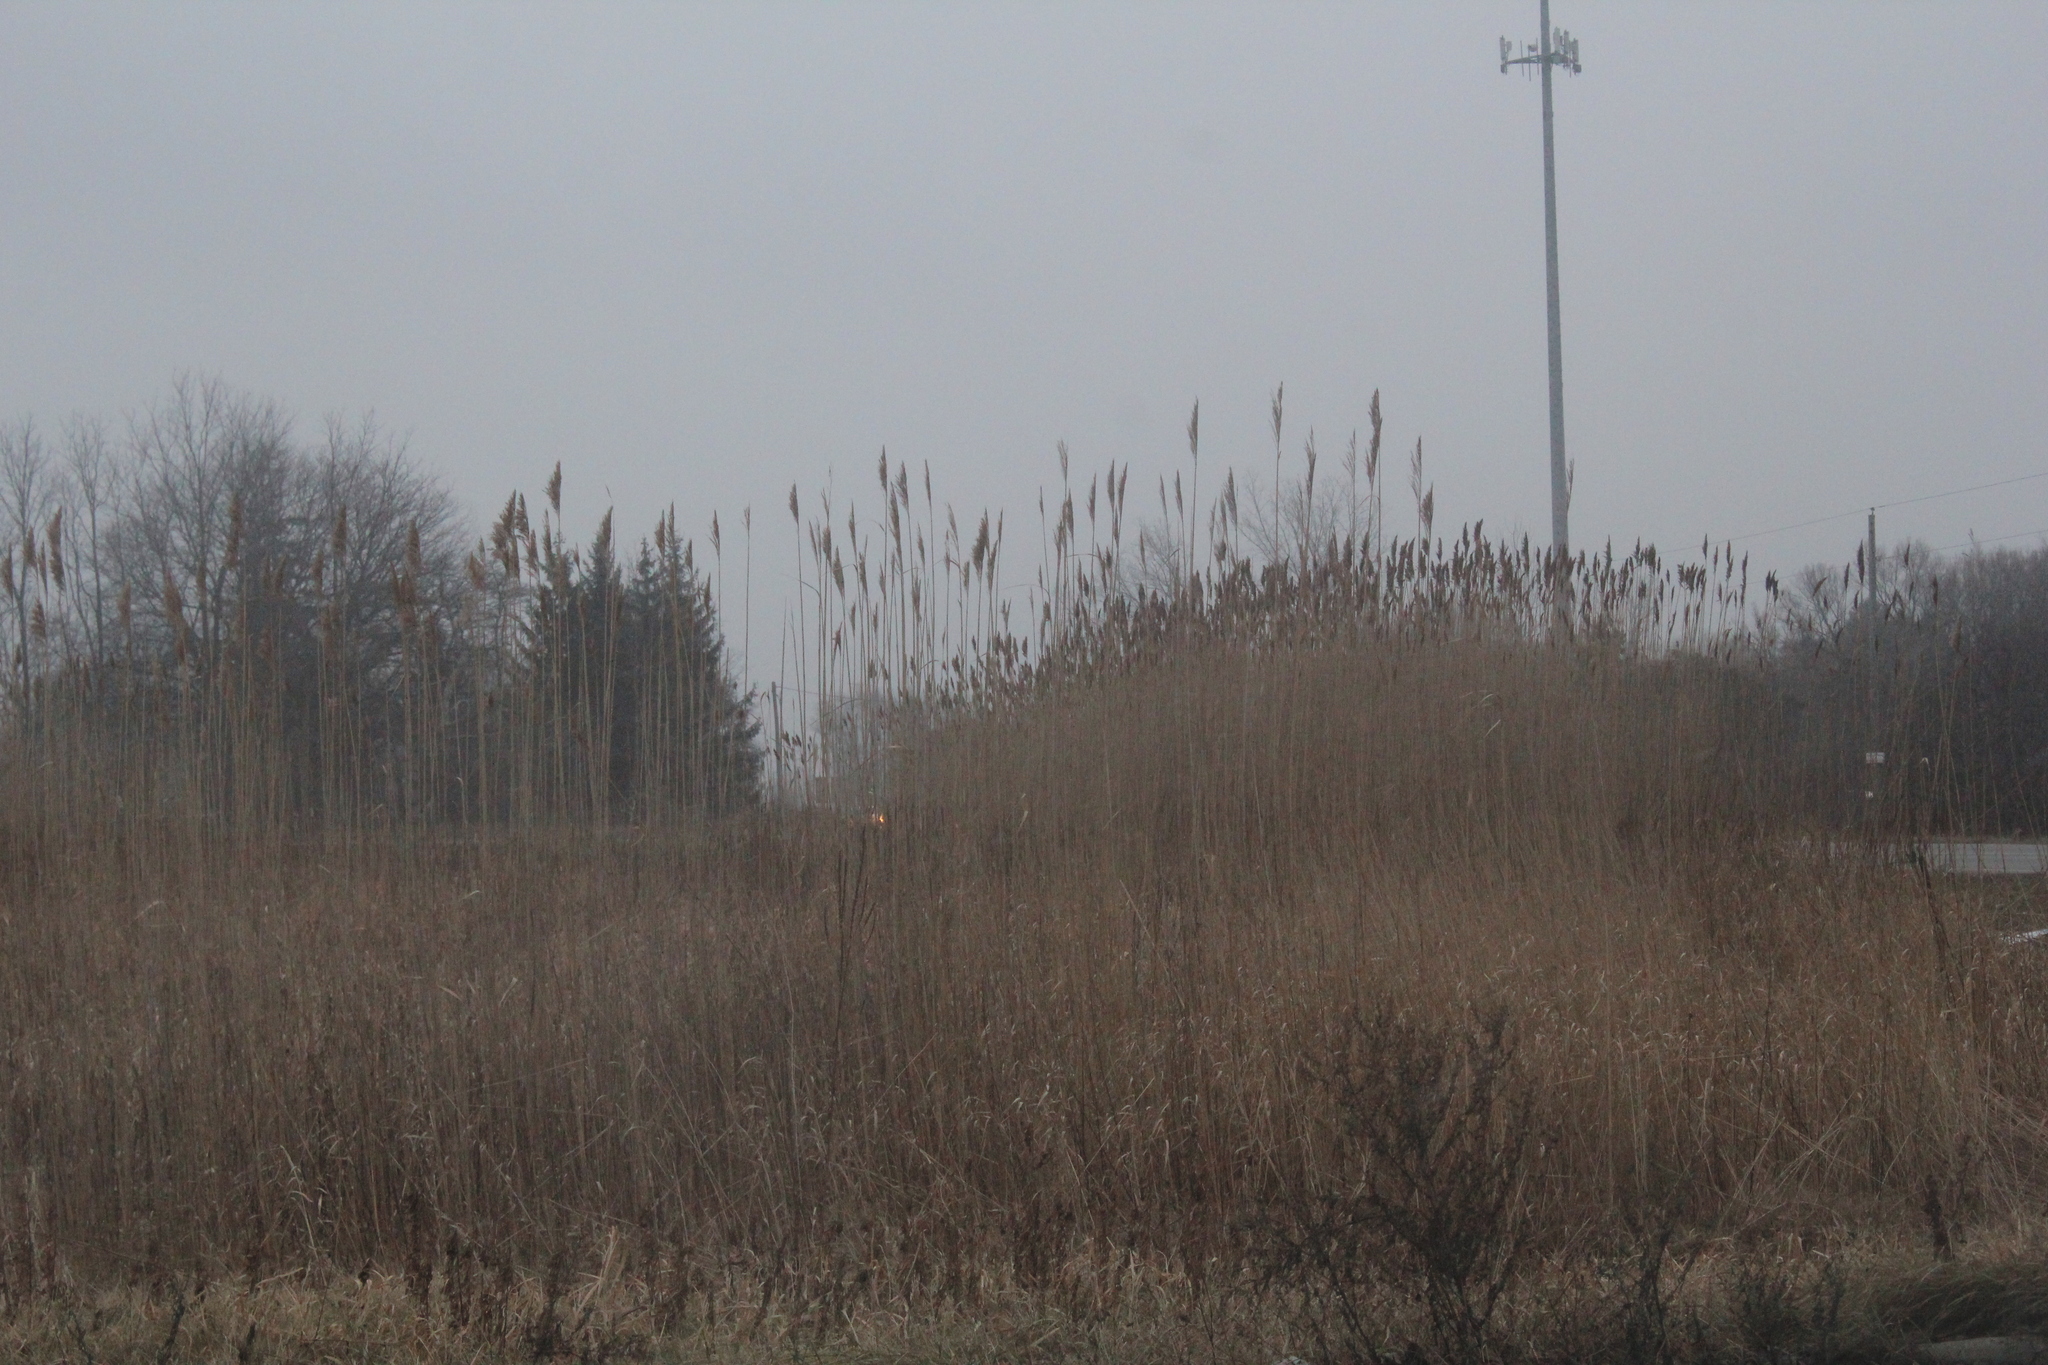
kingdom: Plantae
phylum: Tracheophyta
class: Liliopsida
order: Poales
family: Poaceae
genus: Phragmites
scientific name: Phragmites australis
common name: Common reed
